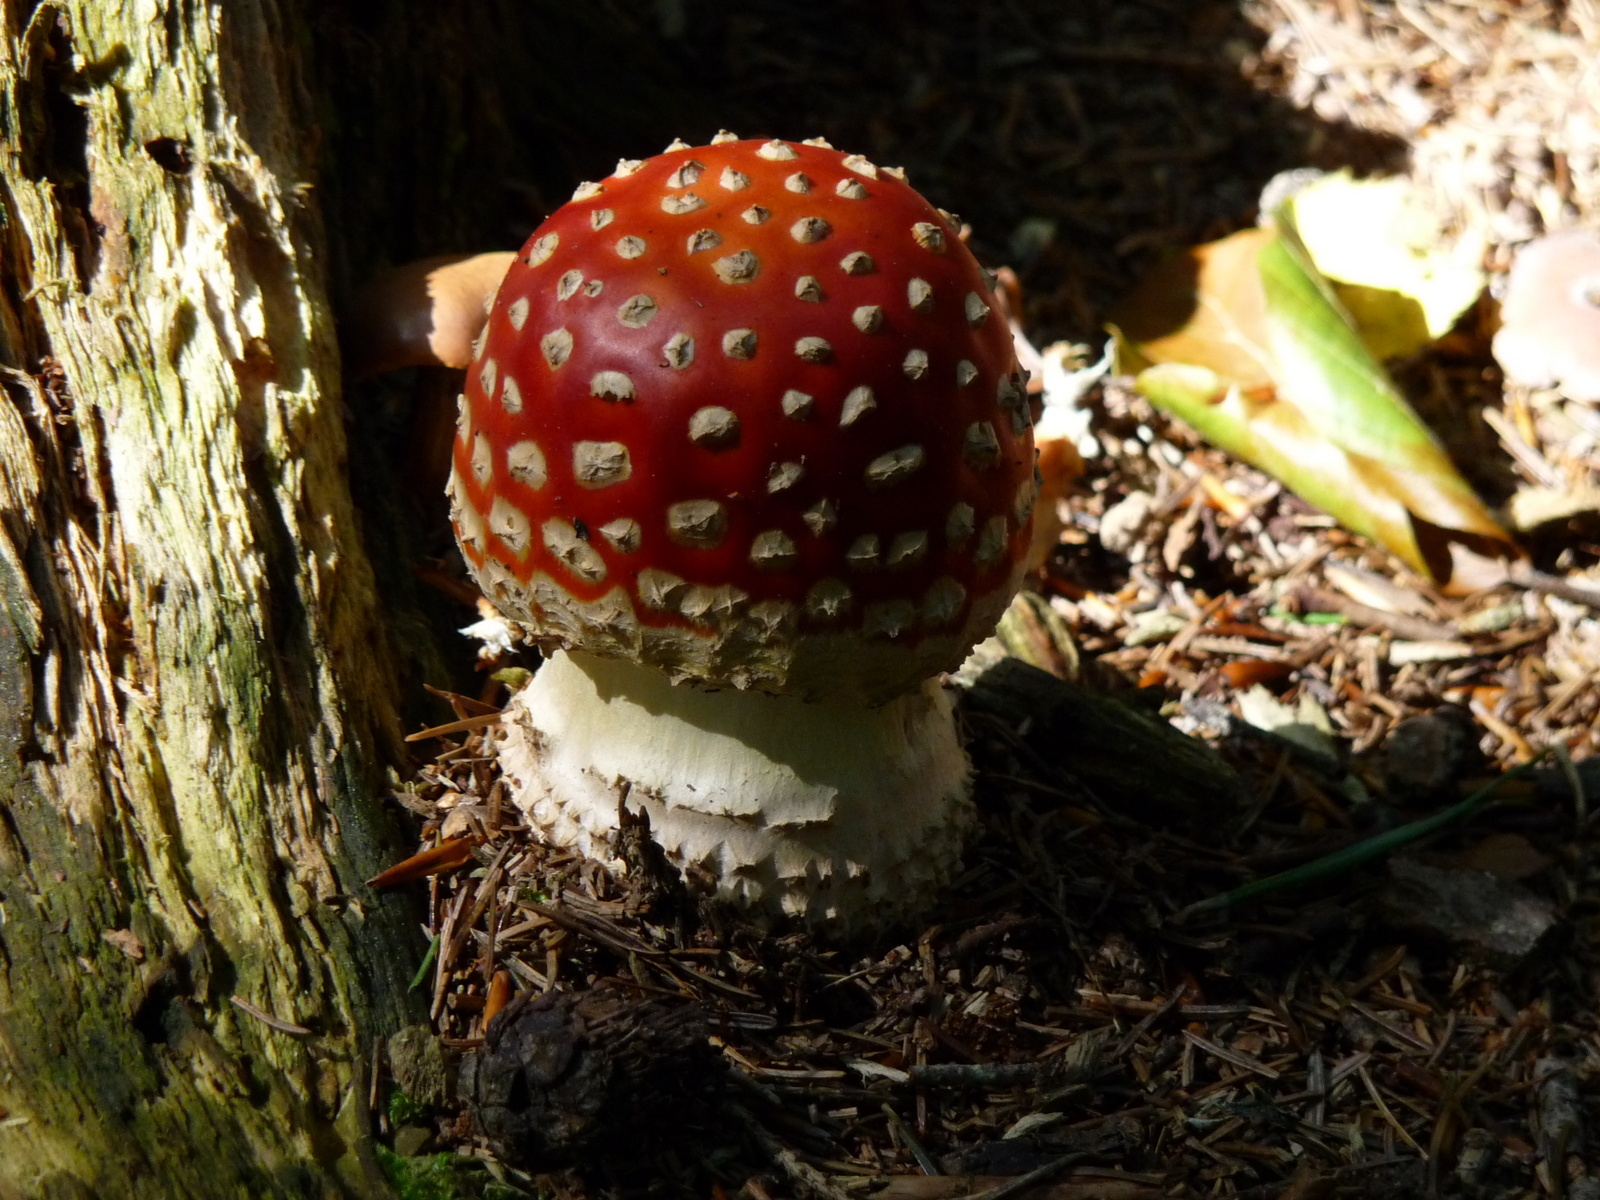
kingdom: Fungi
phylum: Basidiomycota
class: Agaricomycetes
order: Agaricales
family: Amanitaceae
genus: Amanita
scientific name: Amanita muscaria
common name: Fly agaric
